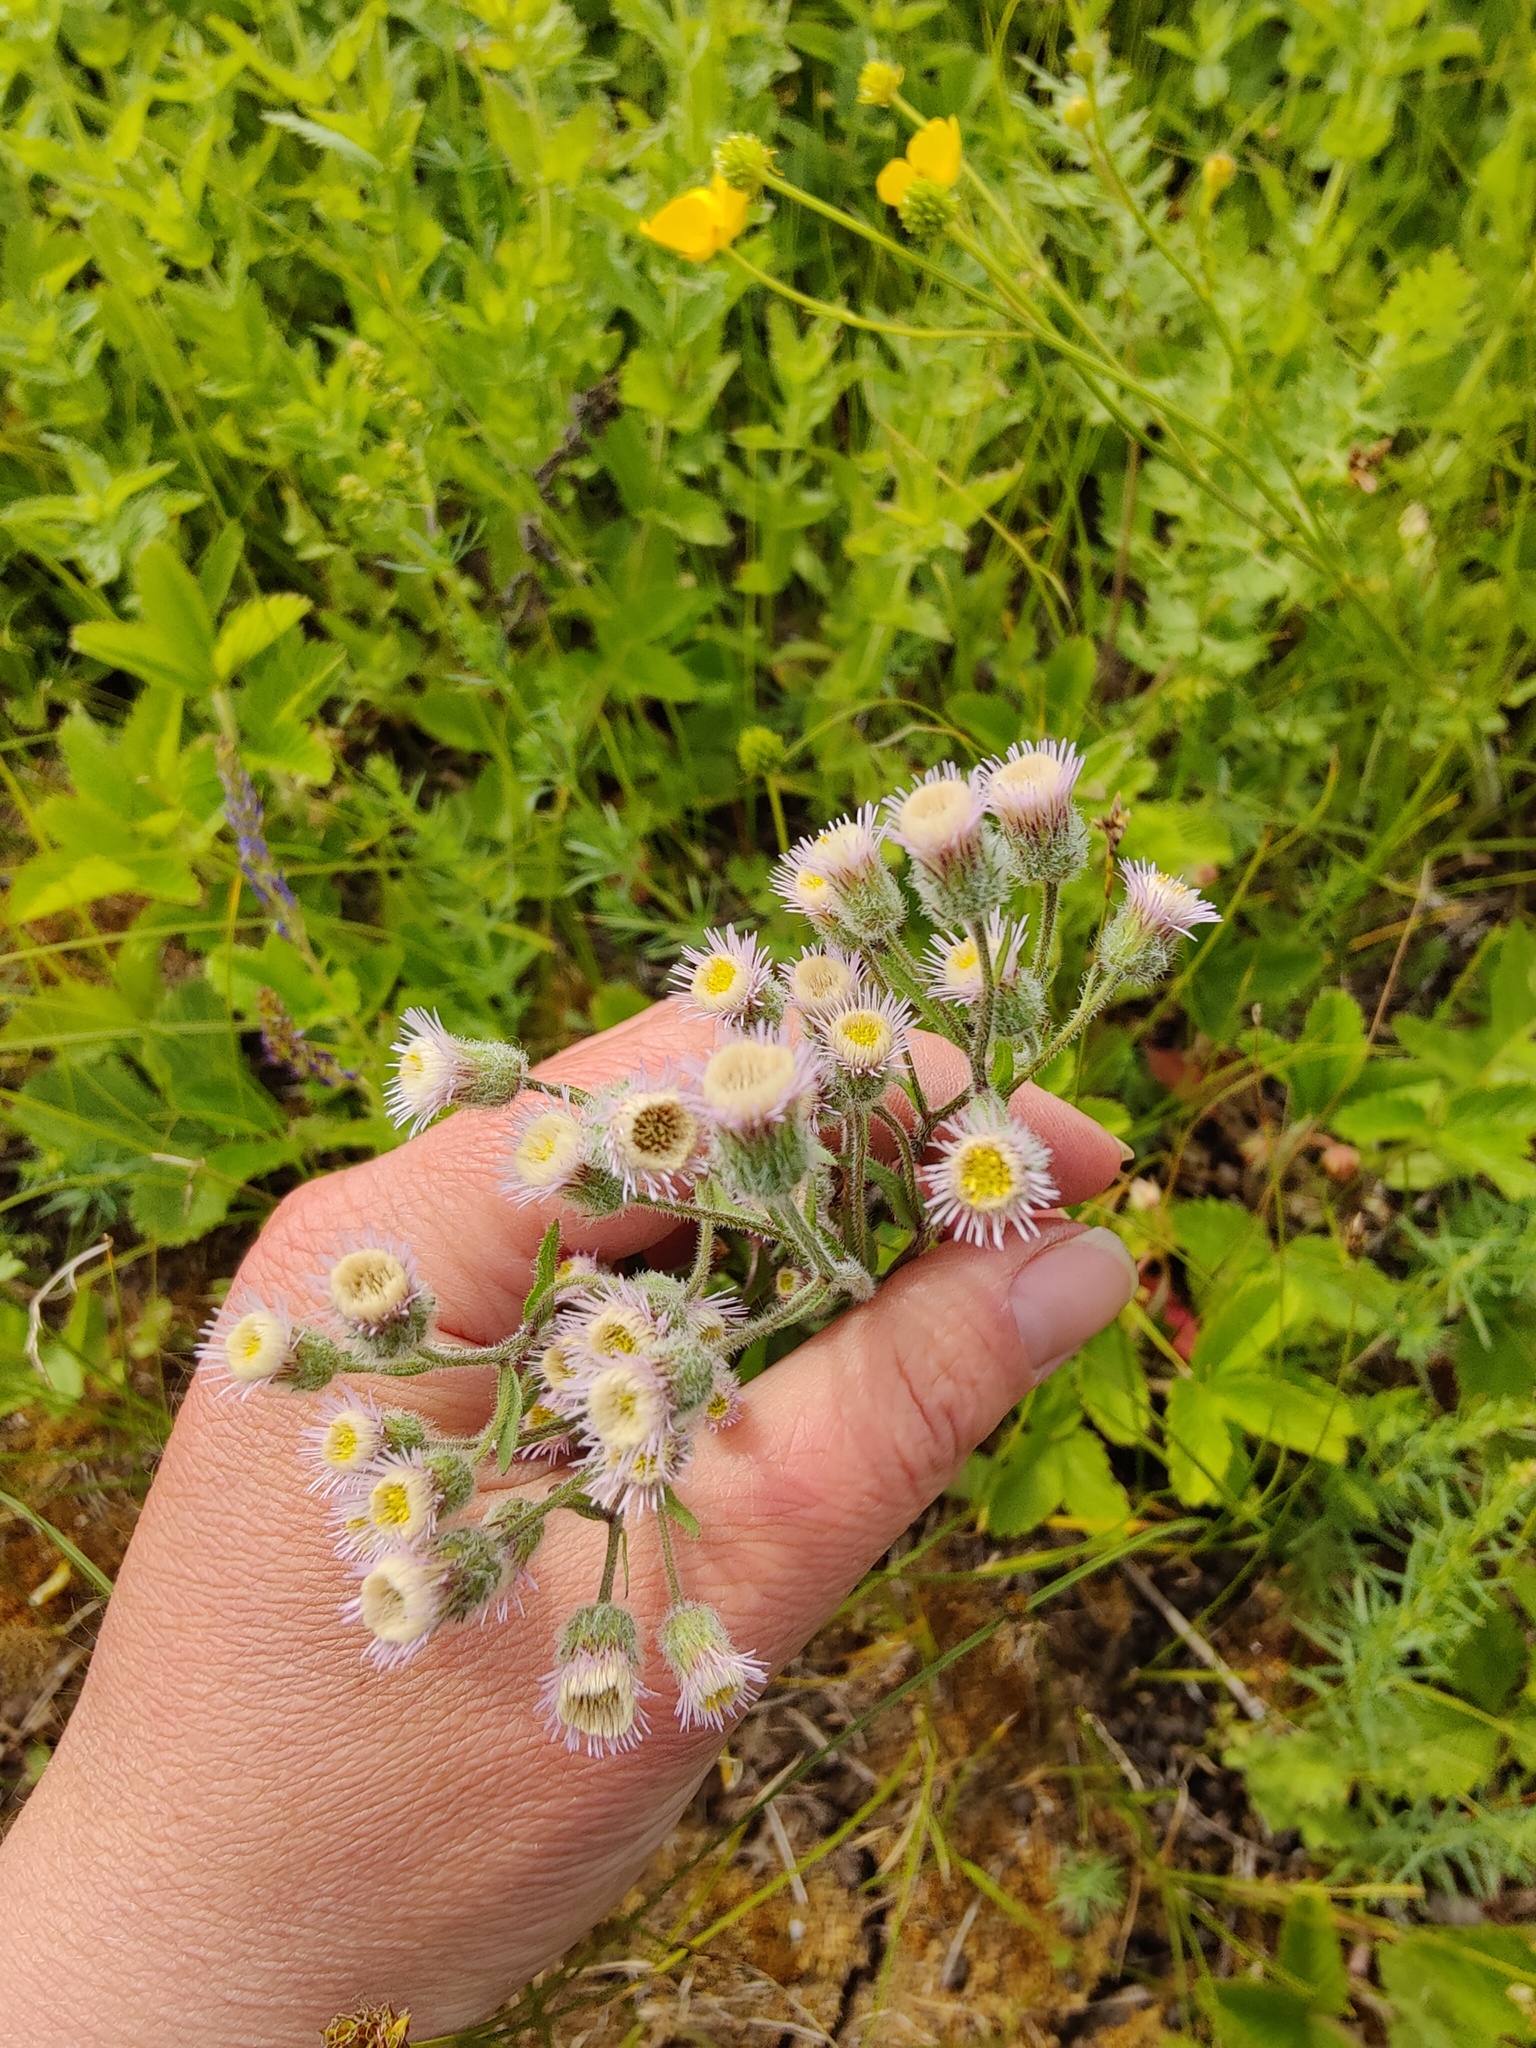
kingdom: Plantae
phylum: Tracheophyta
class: Magnoliopsida
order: Asterales
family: Asteraceae
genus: Erigeron
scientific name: Erigeron acris
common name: Blue fleabane
